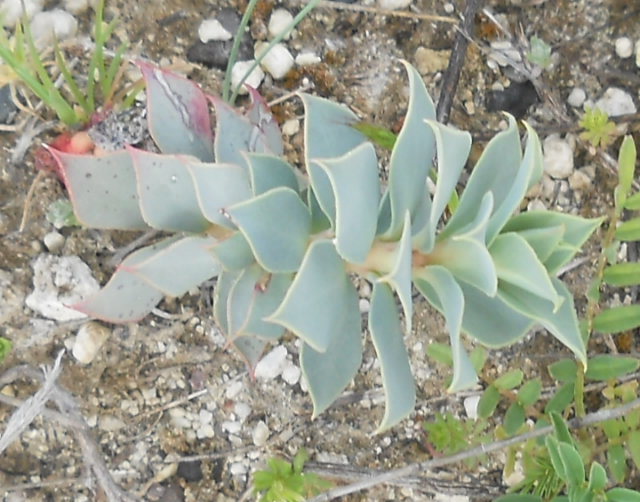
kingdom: Plantae
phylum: Tracheophyta
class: Magnoliopsida
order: Malpighiales
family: Euphorbiaceae
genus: Euphorbia
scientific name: Euphorbia myrsinites
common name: Myrtle spurge
